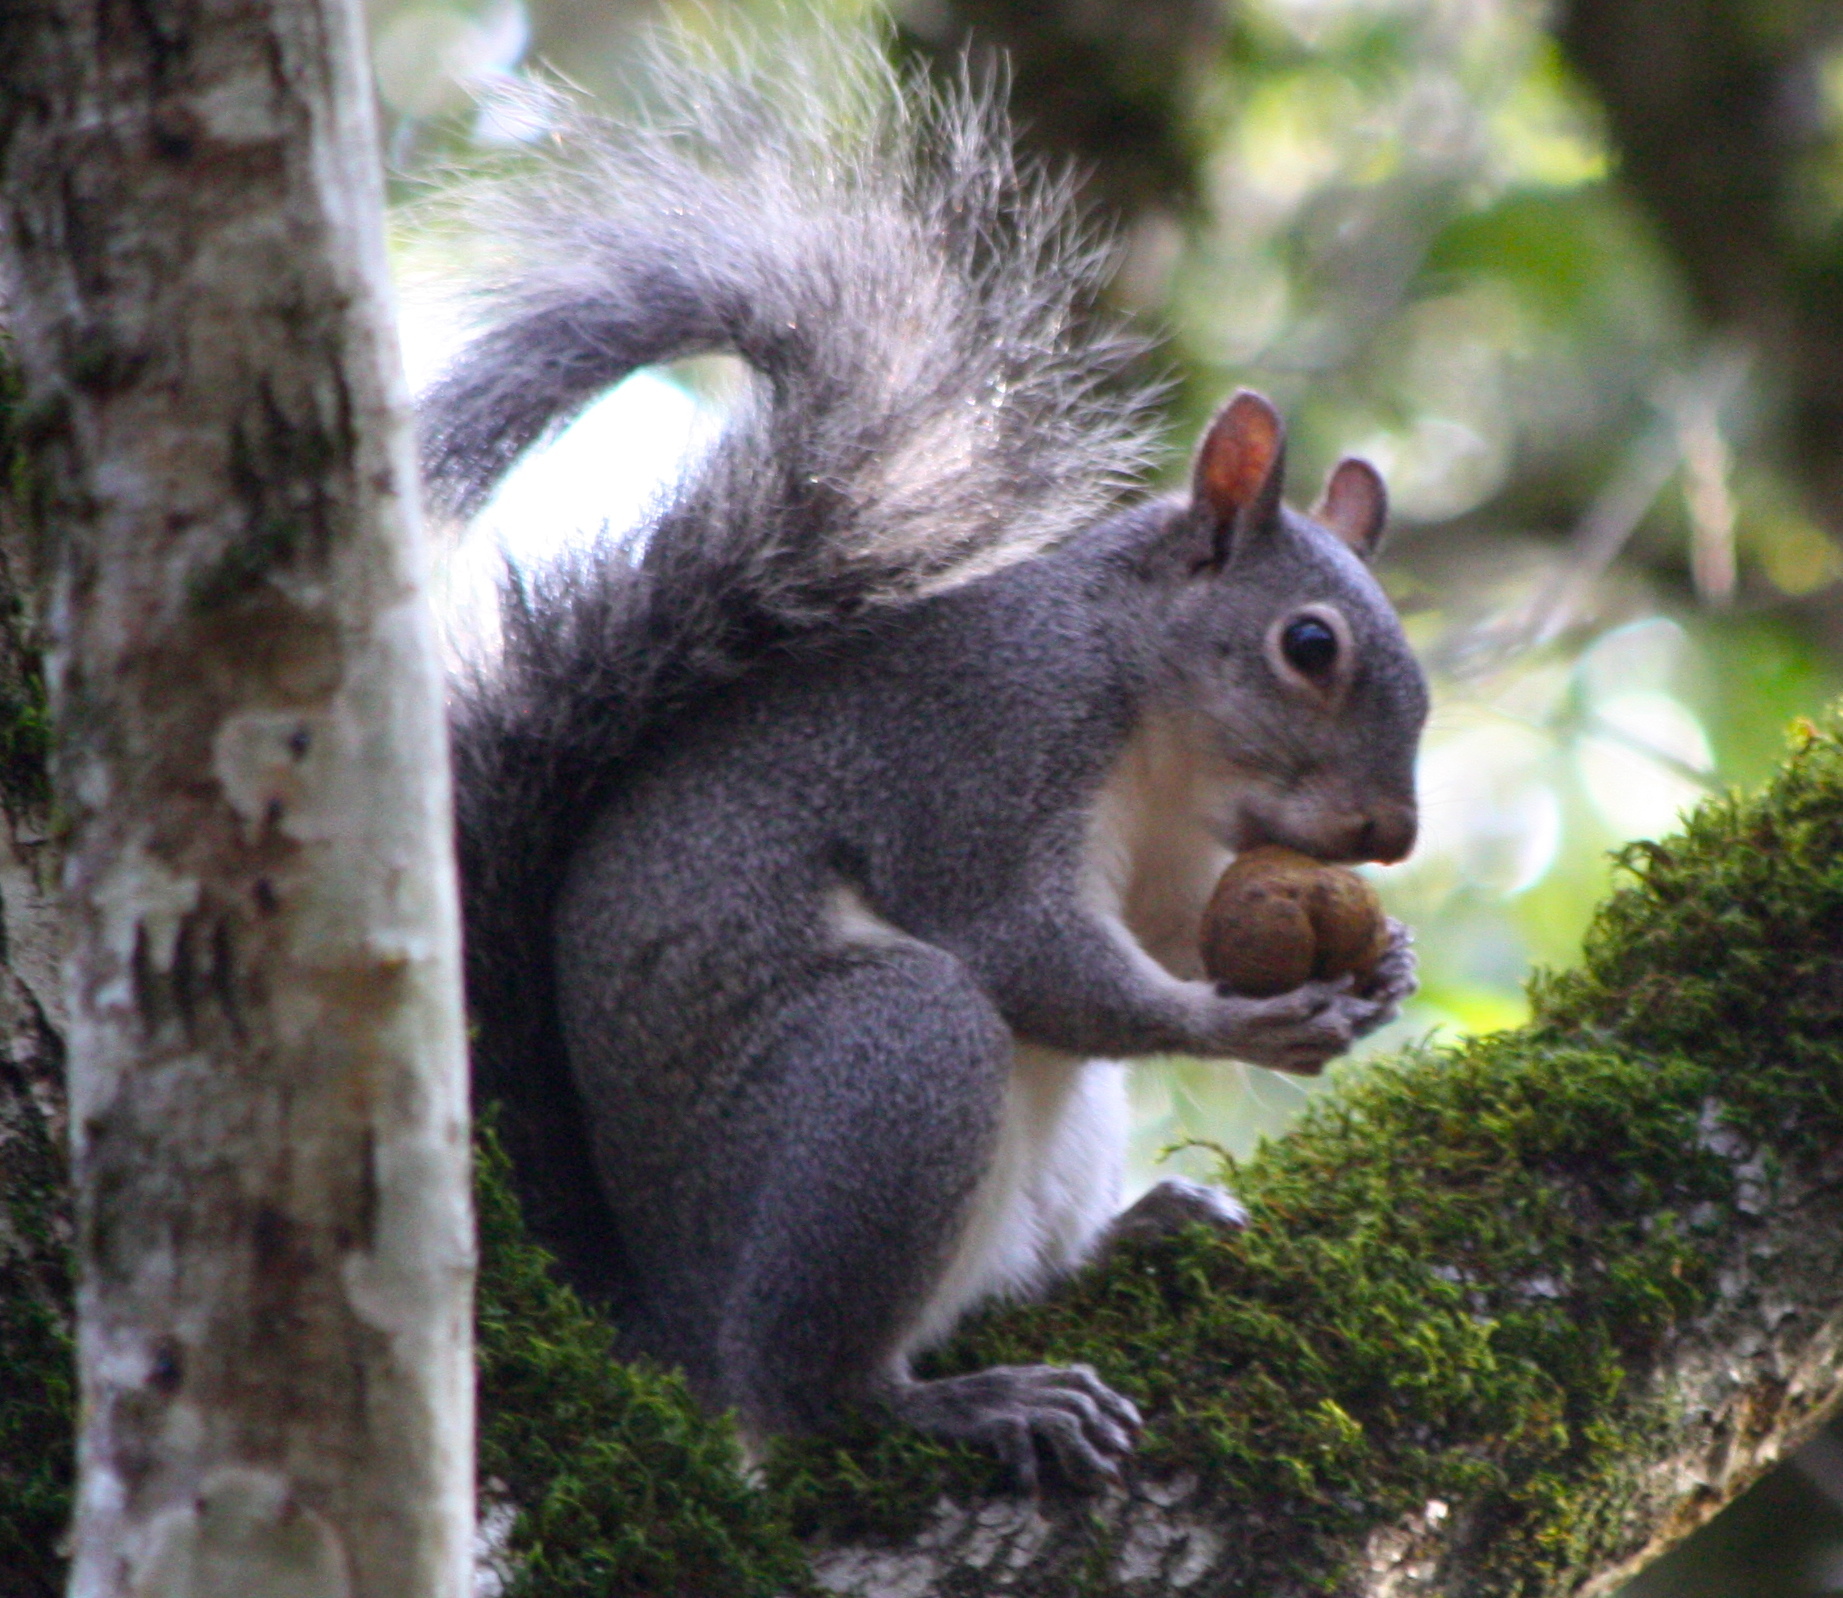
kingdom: Animalia
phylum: Chordata
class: Mammalia
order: Rodentia
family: Sciuridae
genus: Sciurus
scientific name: Sciurus griseus
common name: Western gray squirrel
